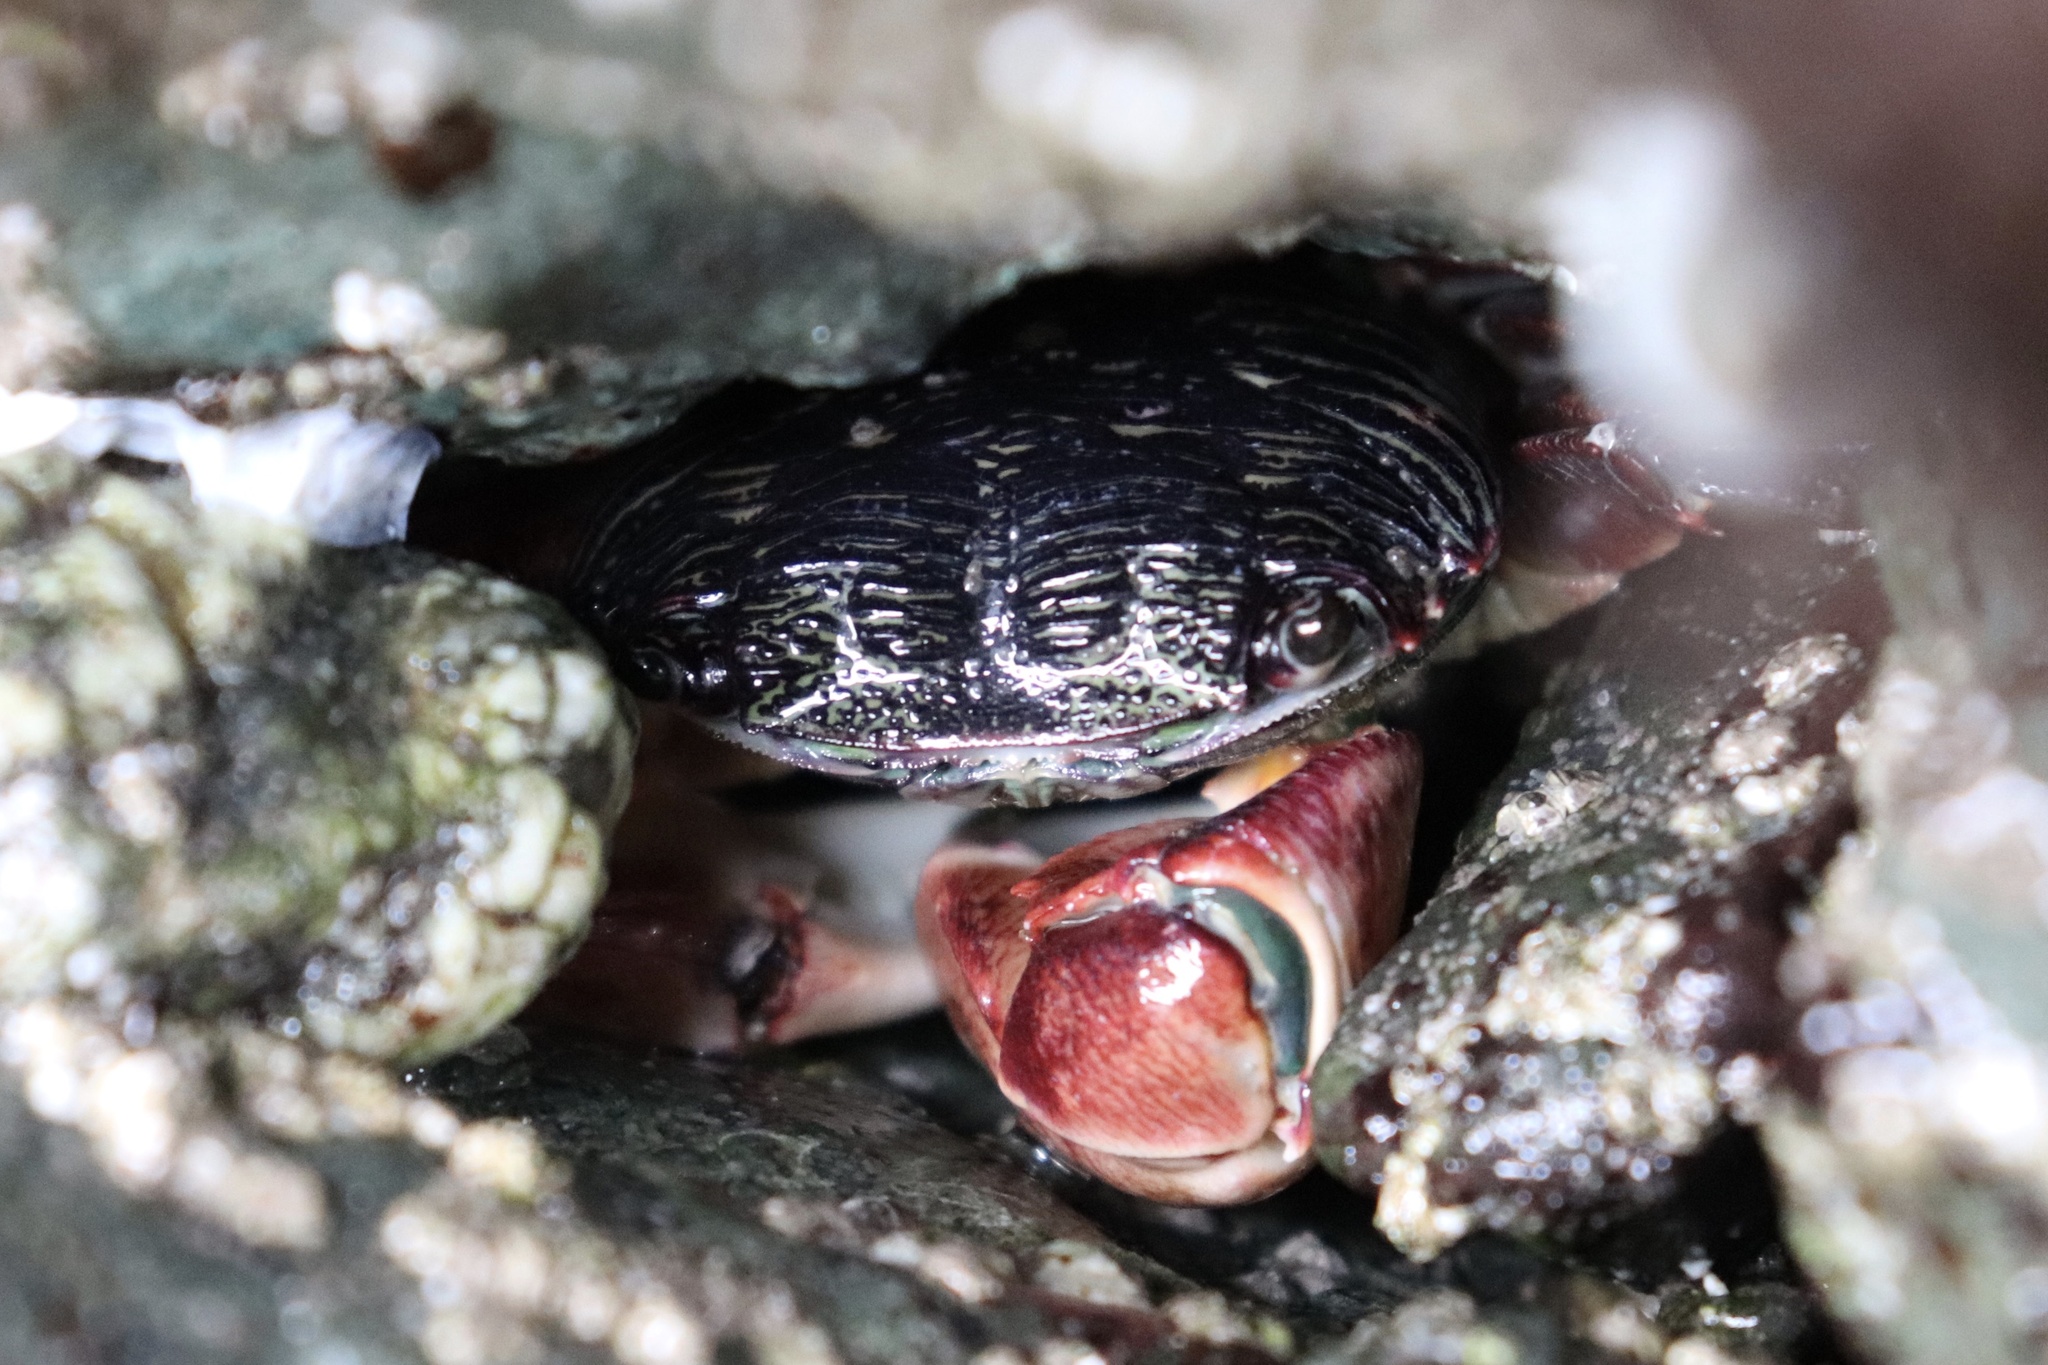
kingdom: Animalia
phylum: Arthropoda
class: Malacostraca
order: Decapoda
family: Grapsidae
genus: Pachygrapsus
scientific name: Pachygrapsus crassipes
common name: Striped shore crab
